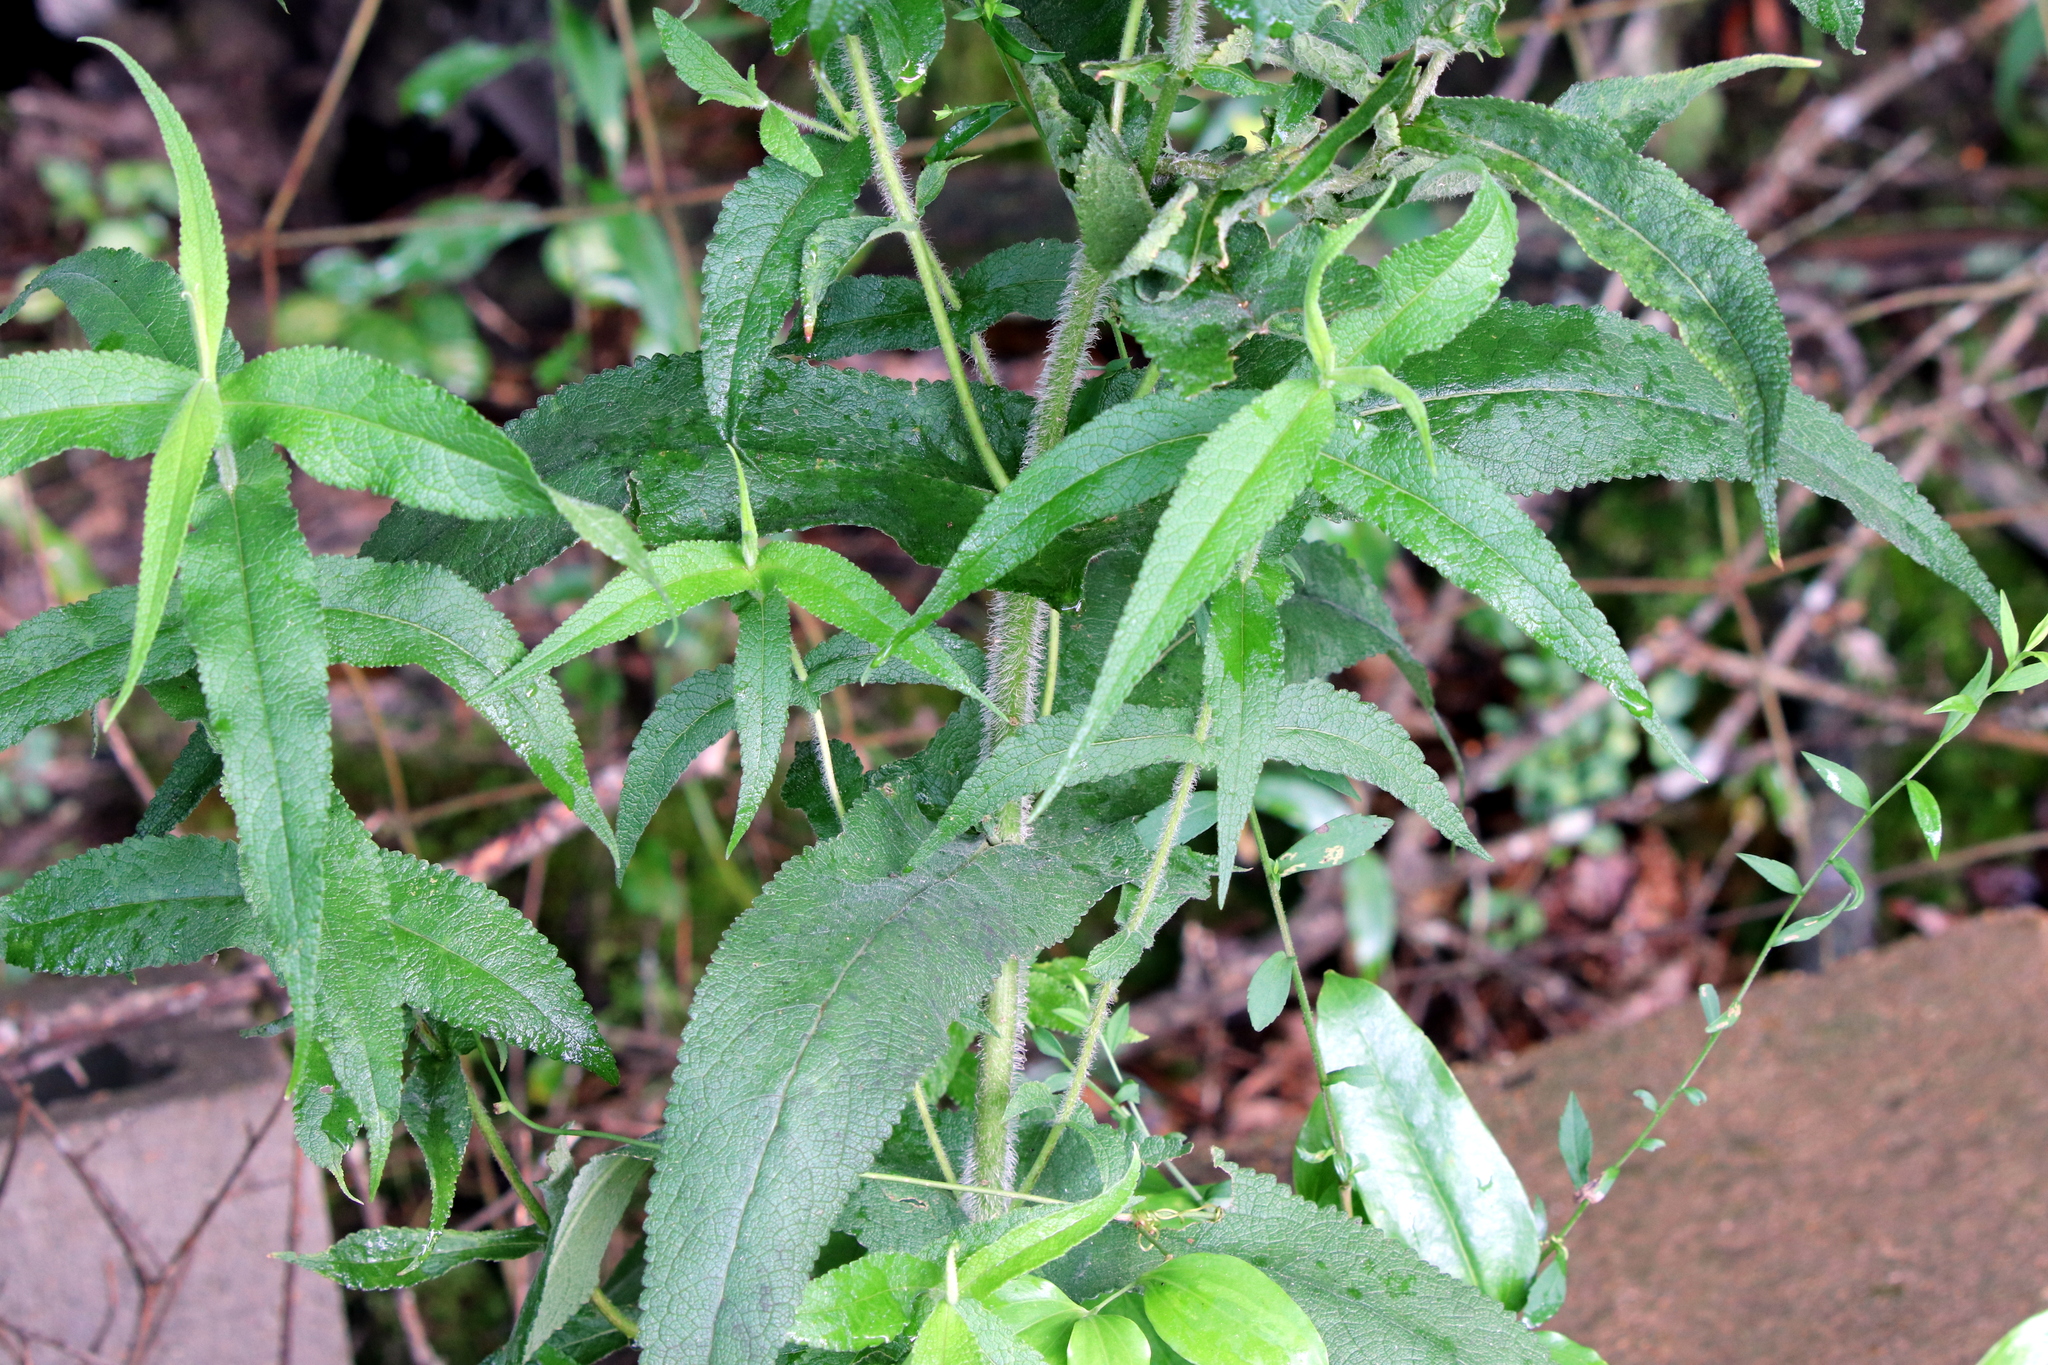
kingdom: Plantae
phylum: Tracheophyta
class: Magnoliopsida
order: Asterales
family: Asteraceae
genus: Eupatorium
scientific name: Eupatorium perfoliatum
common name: Boneset
